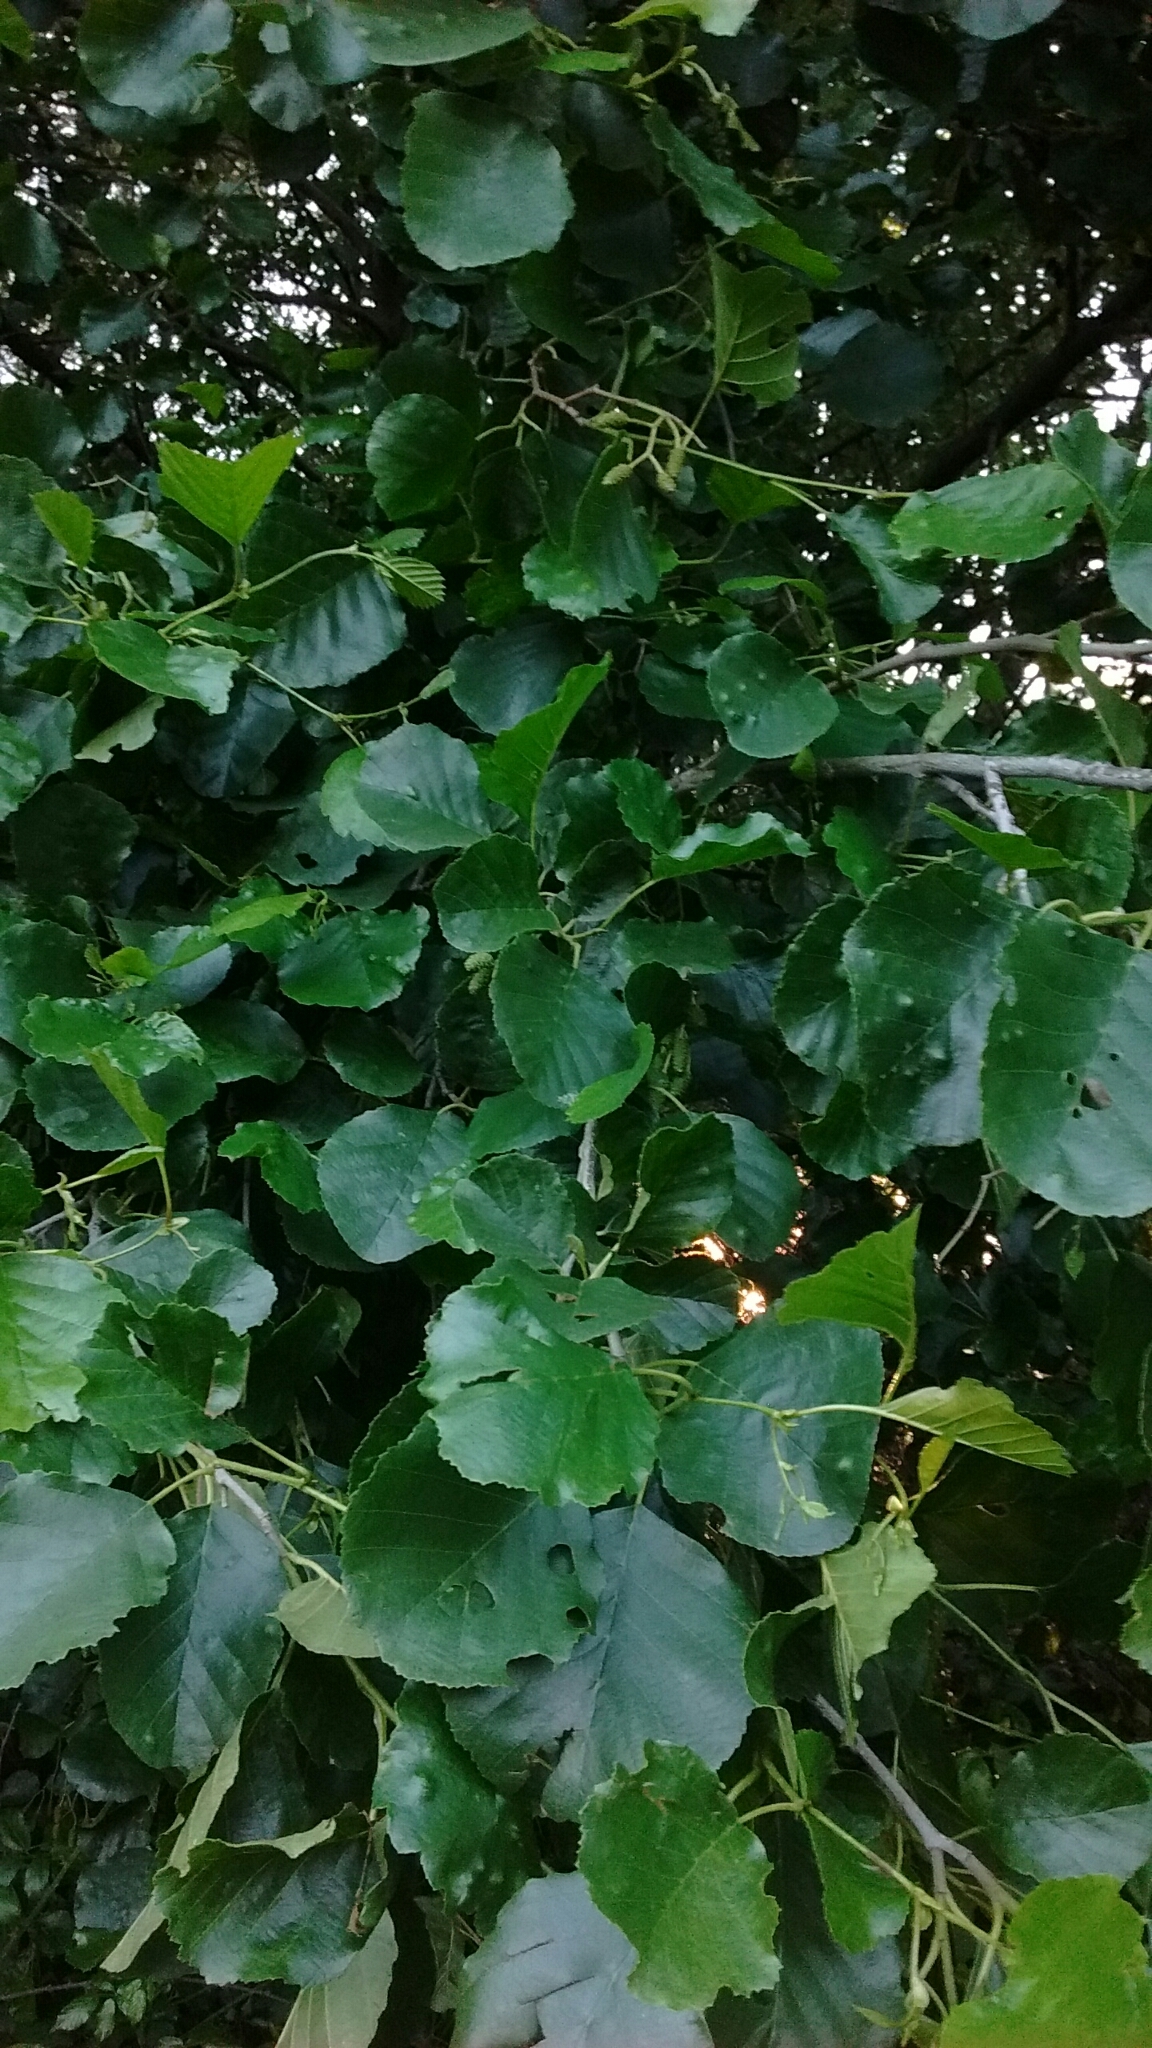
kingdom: Plantae
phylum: Tracheophyta
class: Magnoliopsida
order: Fagales
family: Betulaceae
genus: Alnus
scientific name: Alnus lusitanica
